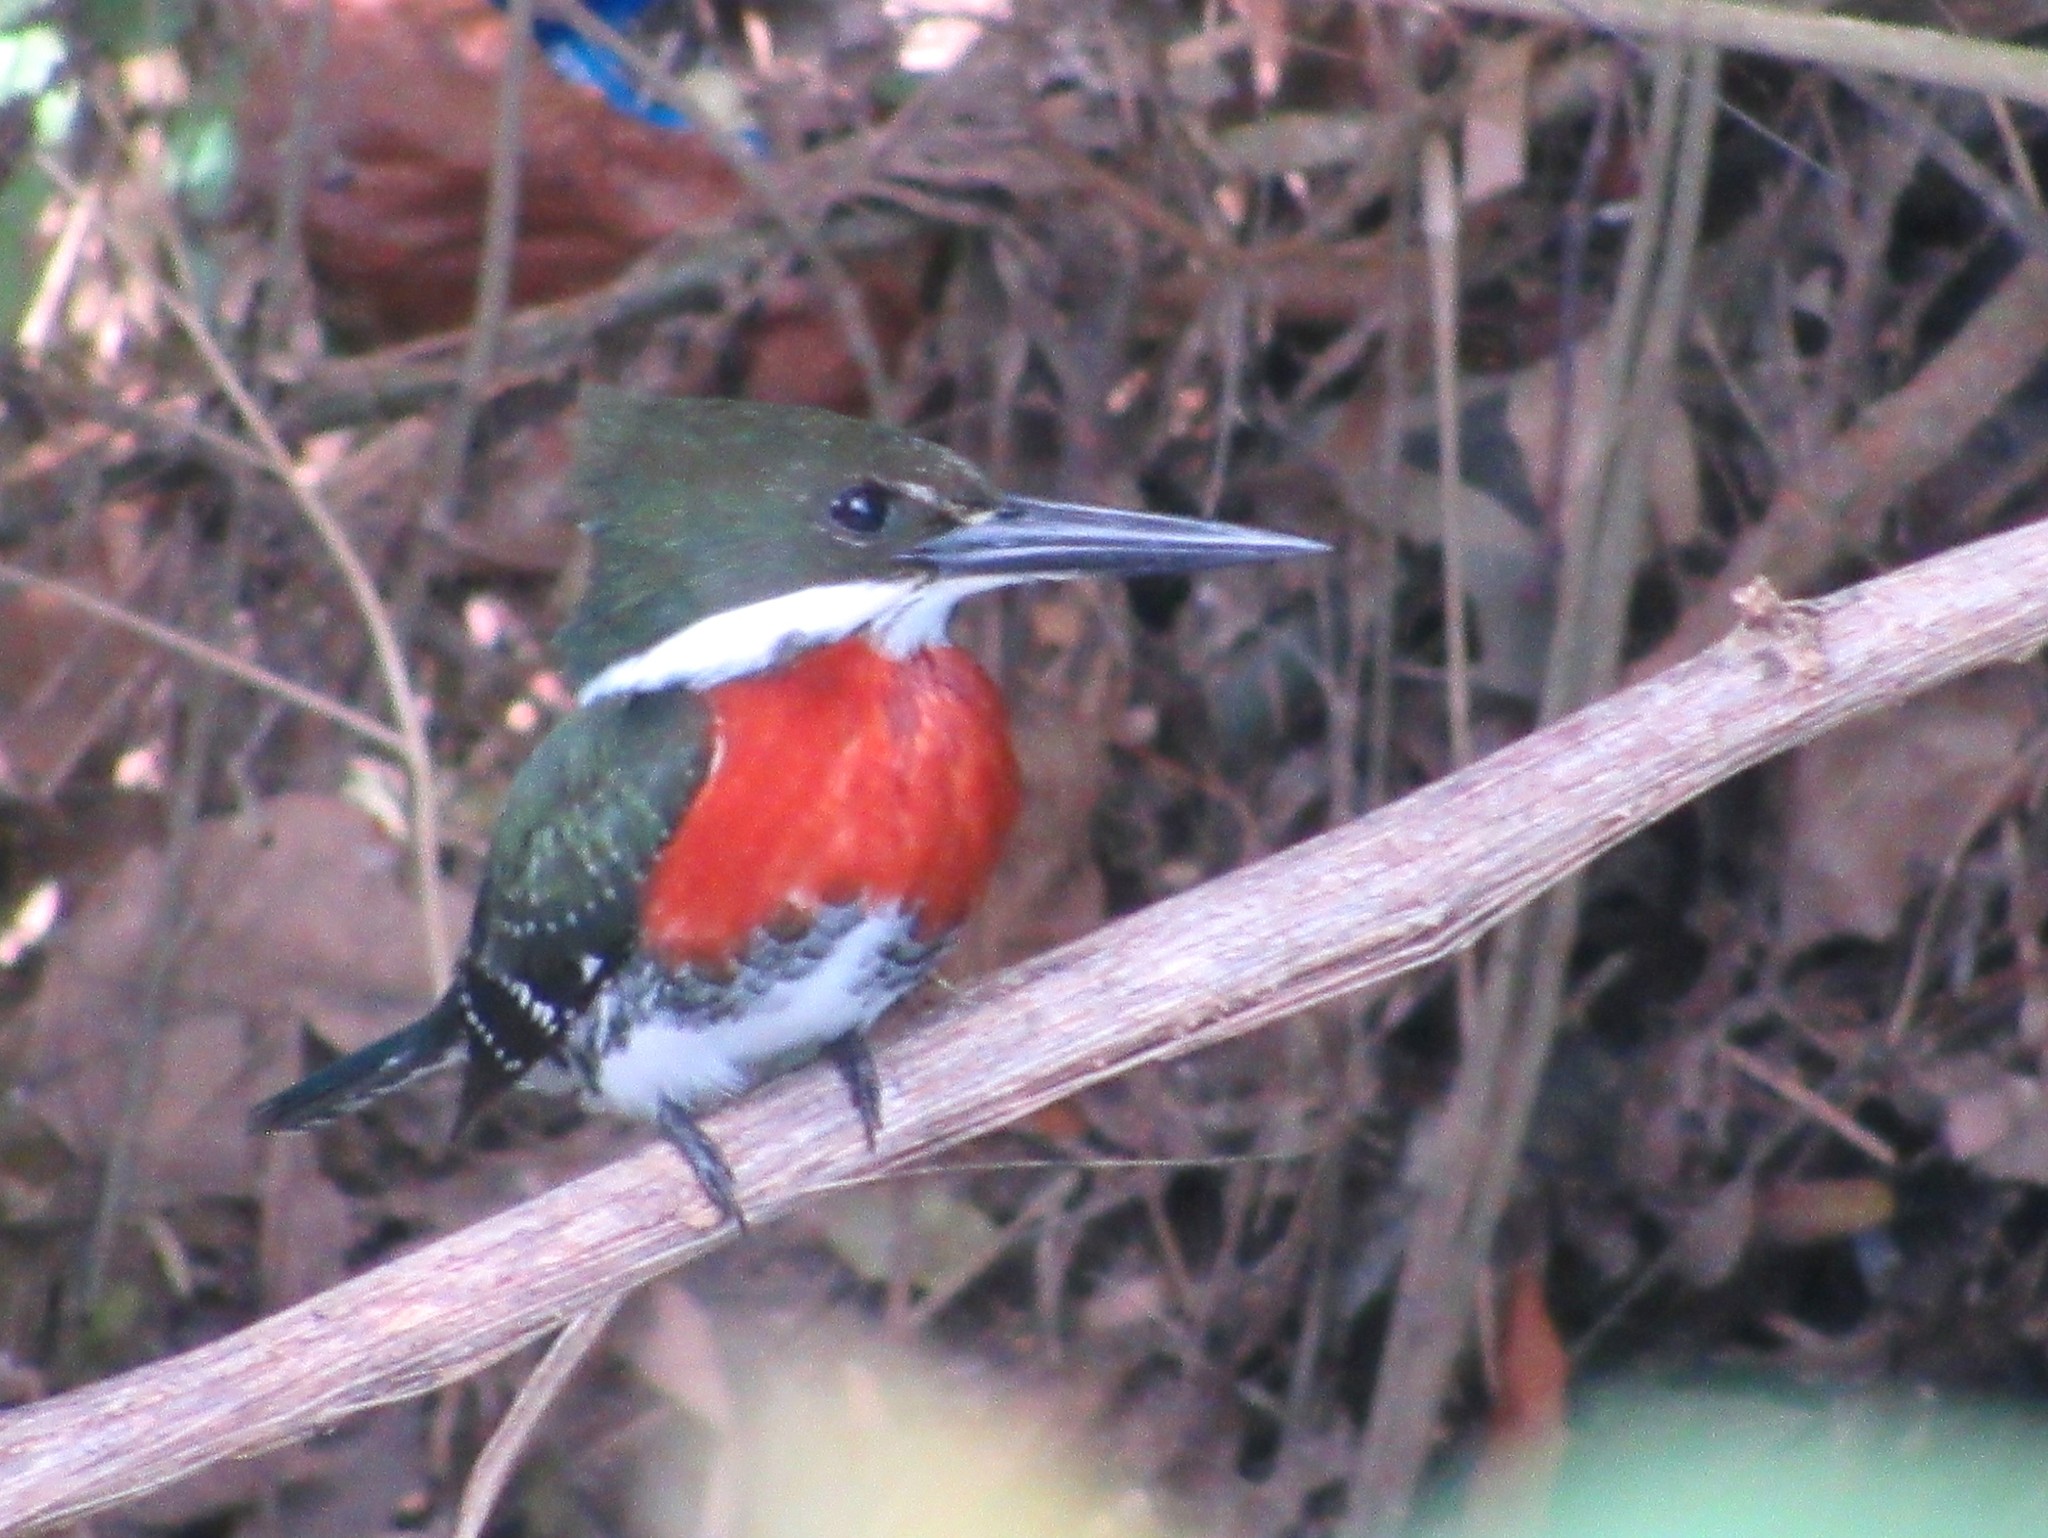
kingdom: Animalia
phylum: Chordata
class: Aves
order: Coraciiformes
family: Alcedinidae
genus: Chloroceryle
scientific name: Chloroceryle americana
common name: Green kingfisher
